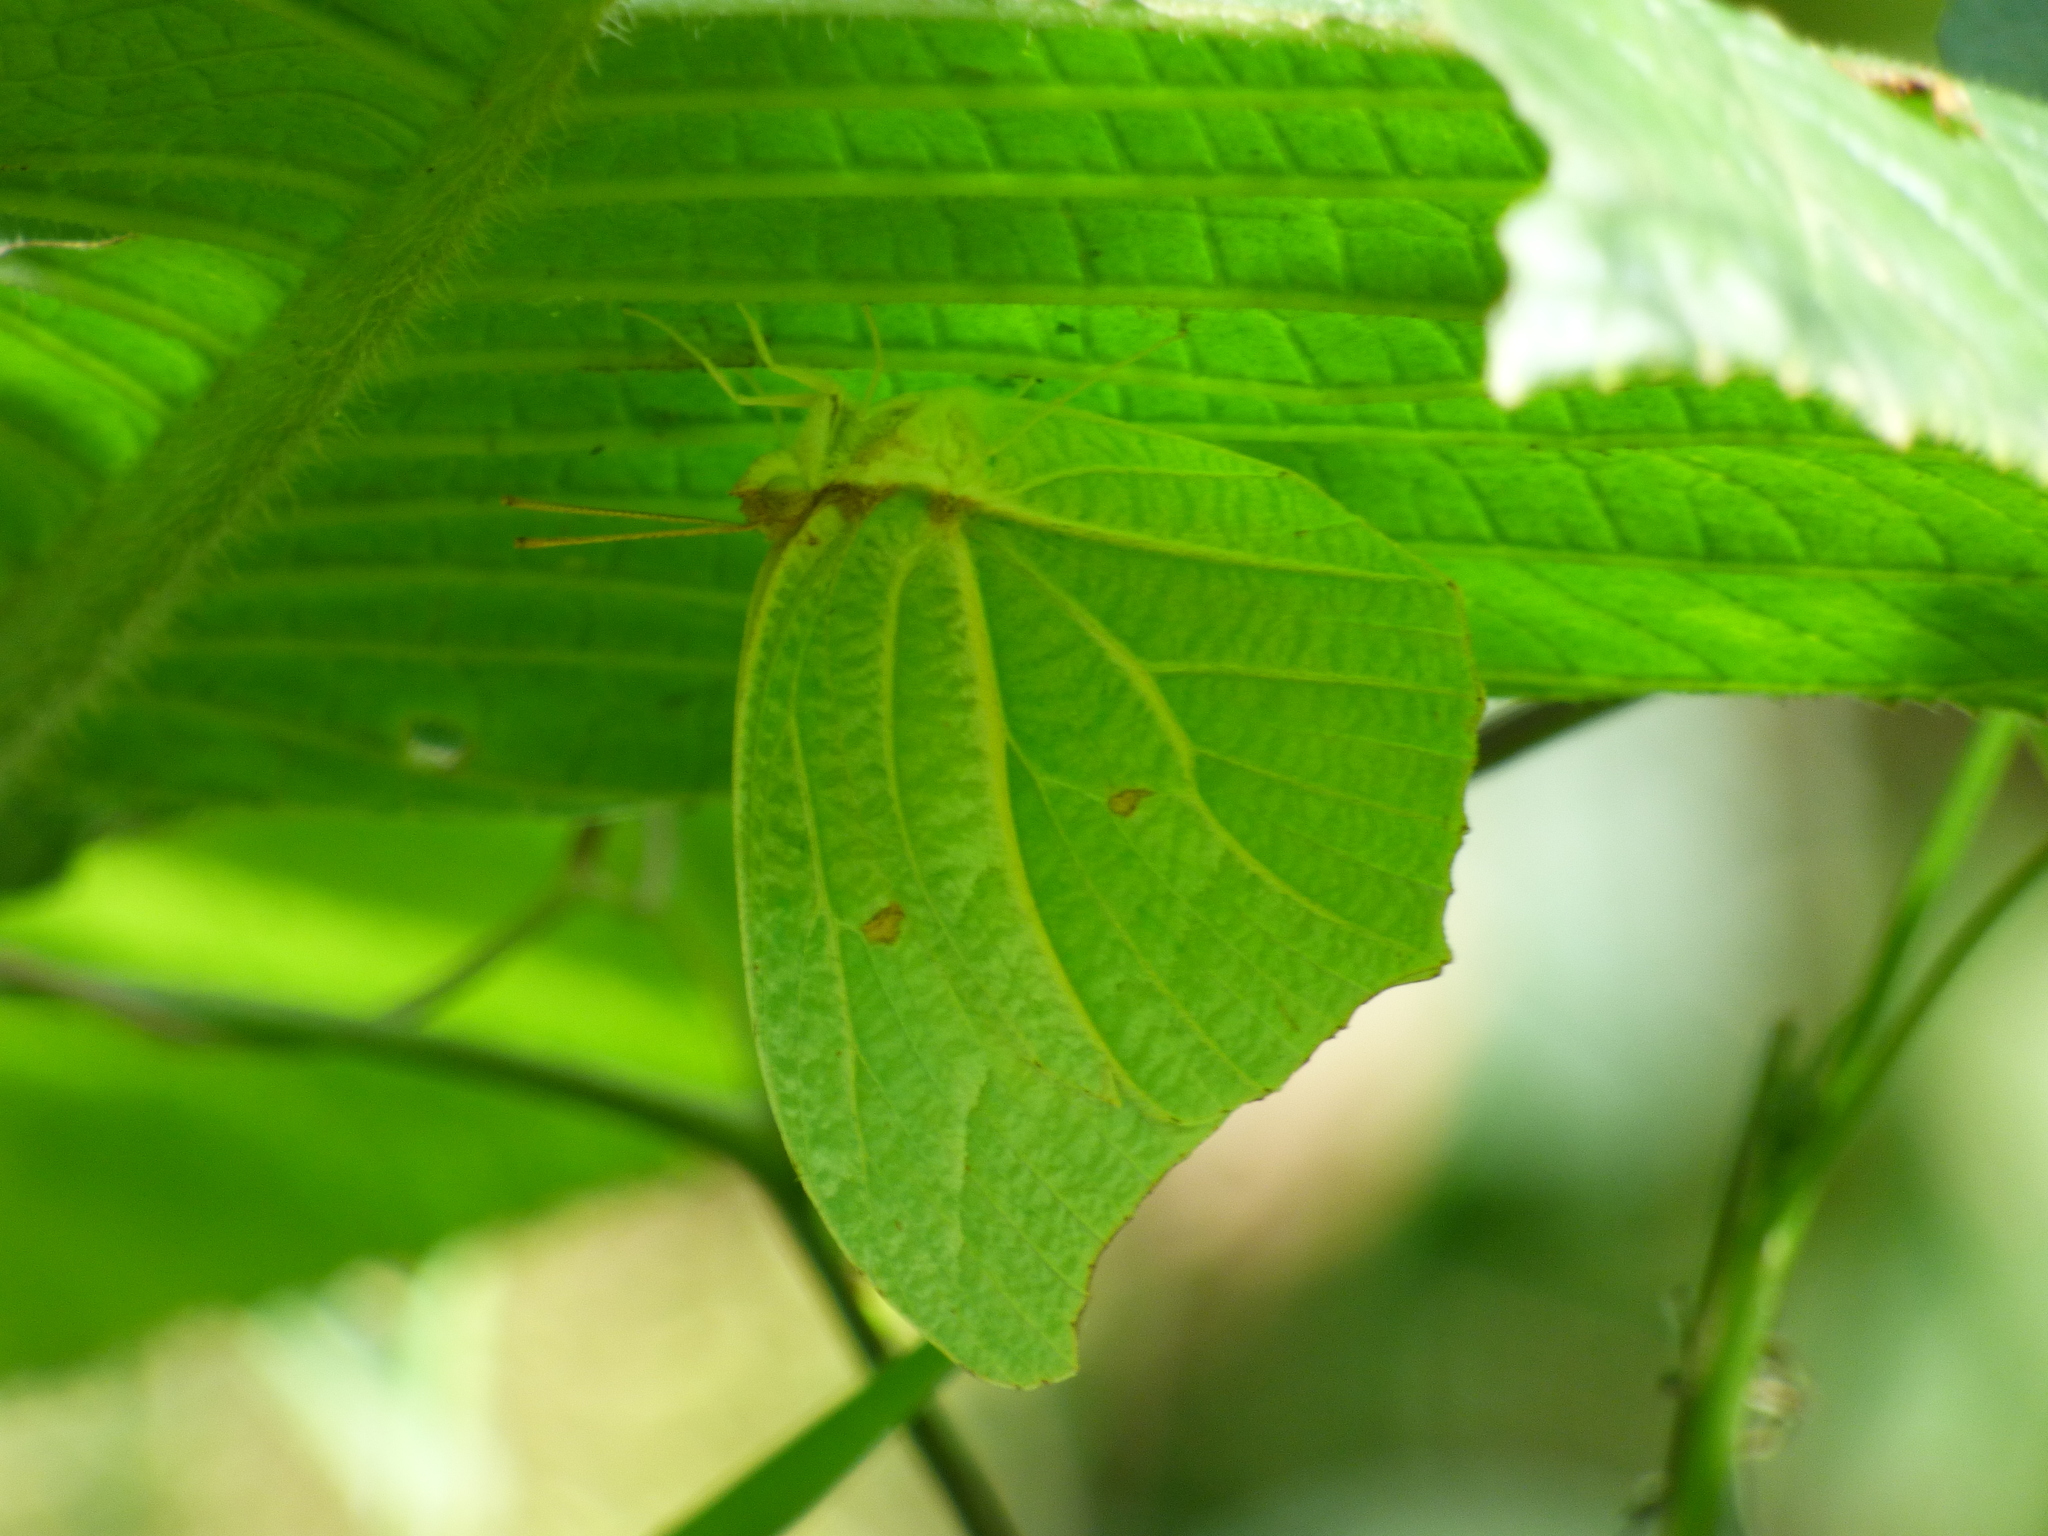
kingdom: Animalia
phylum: Arthropoda
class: Insecta
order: Lepidoptera
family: Pieridae
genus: Anteos
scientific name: Anteos clorinde
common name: White angled sulphur
